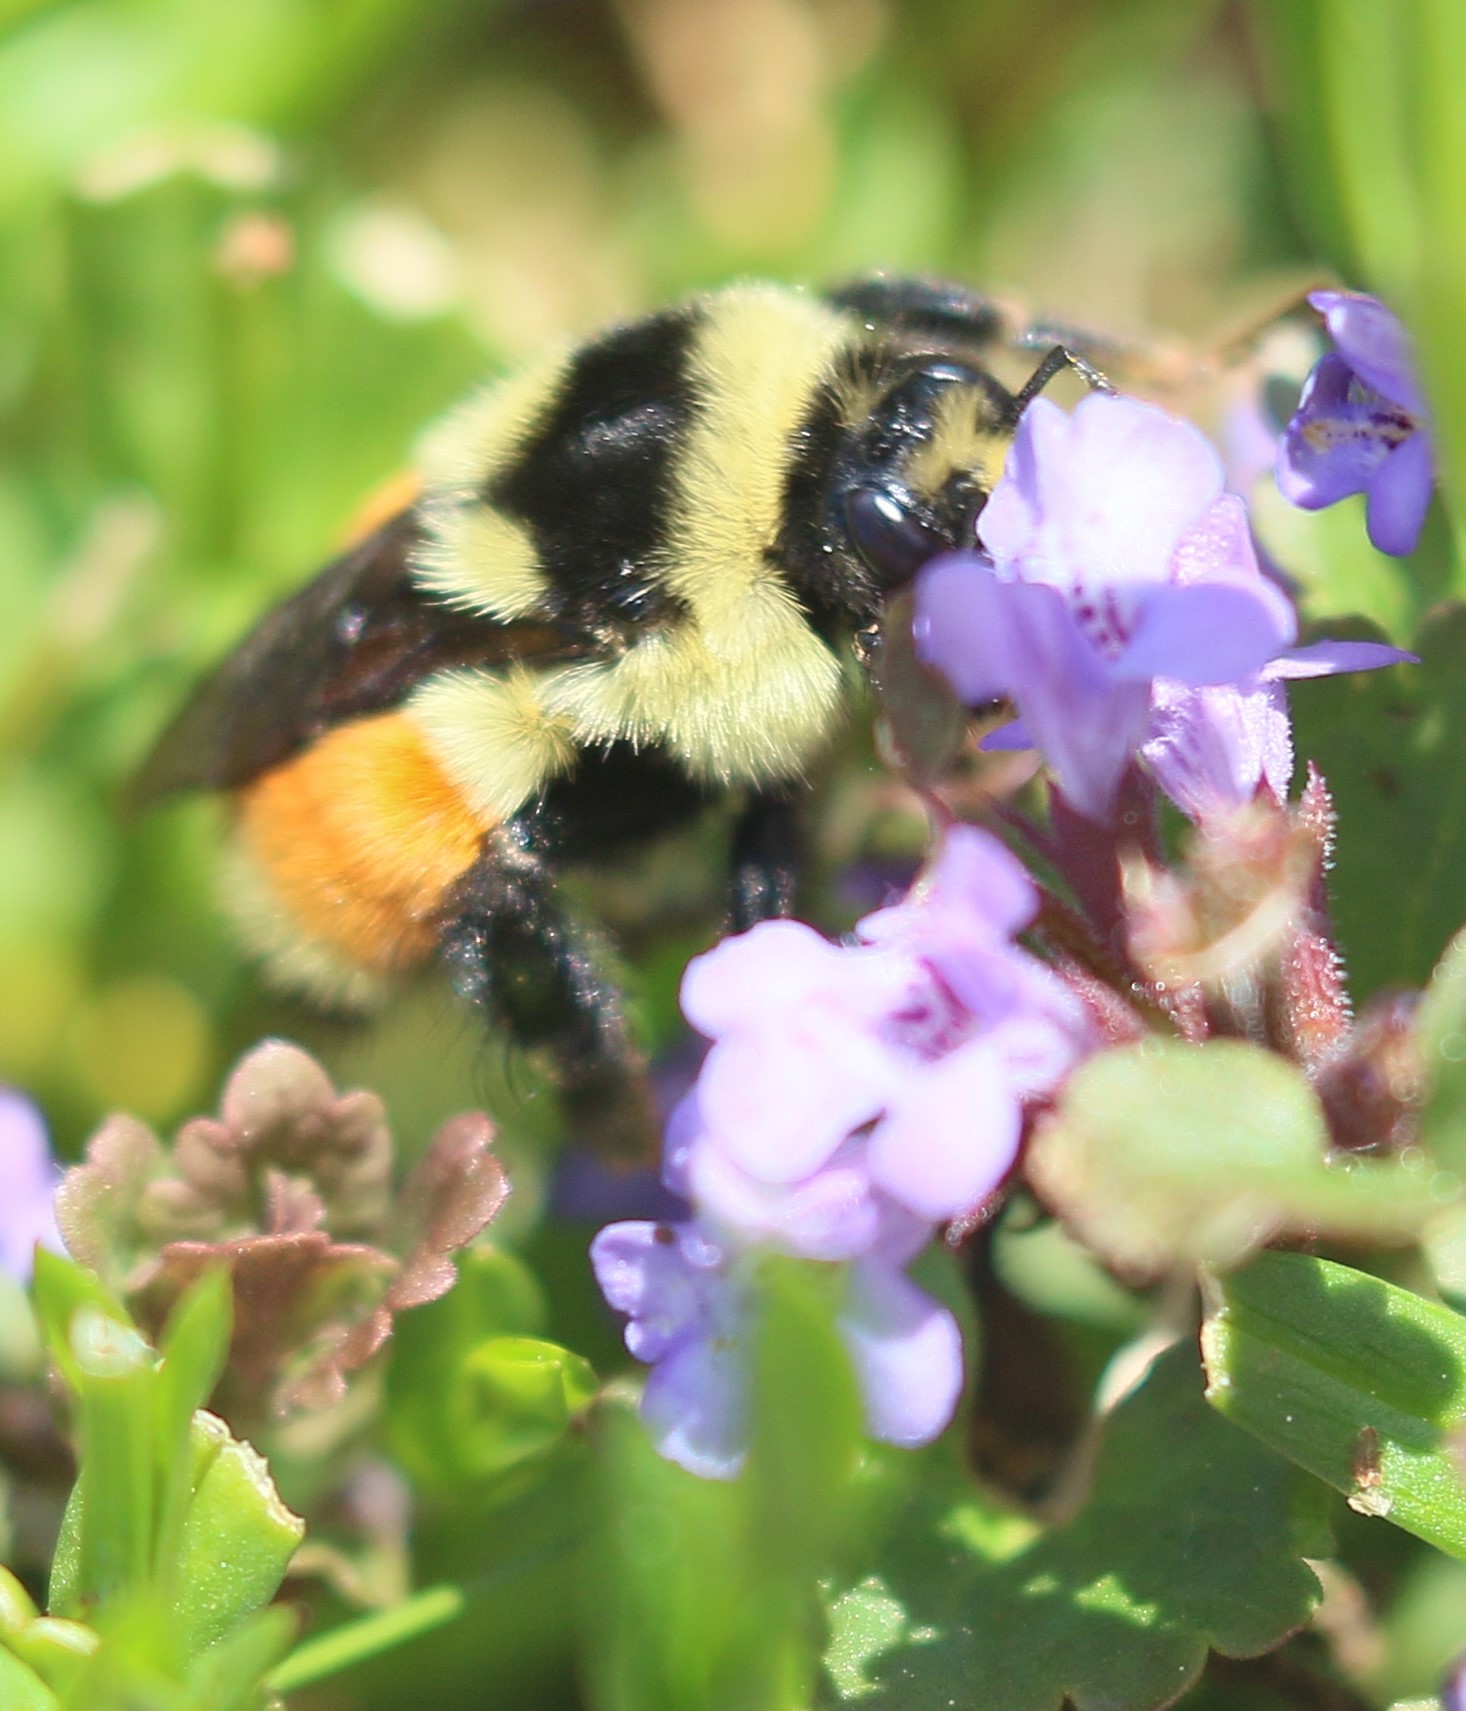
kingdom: Animalia
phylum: Arthropoda
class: Insecta
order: Hymenoptera
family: Apidae
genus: Bombus
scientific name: Bombus ternarius
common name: Tri-colored bumble bee
